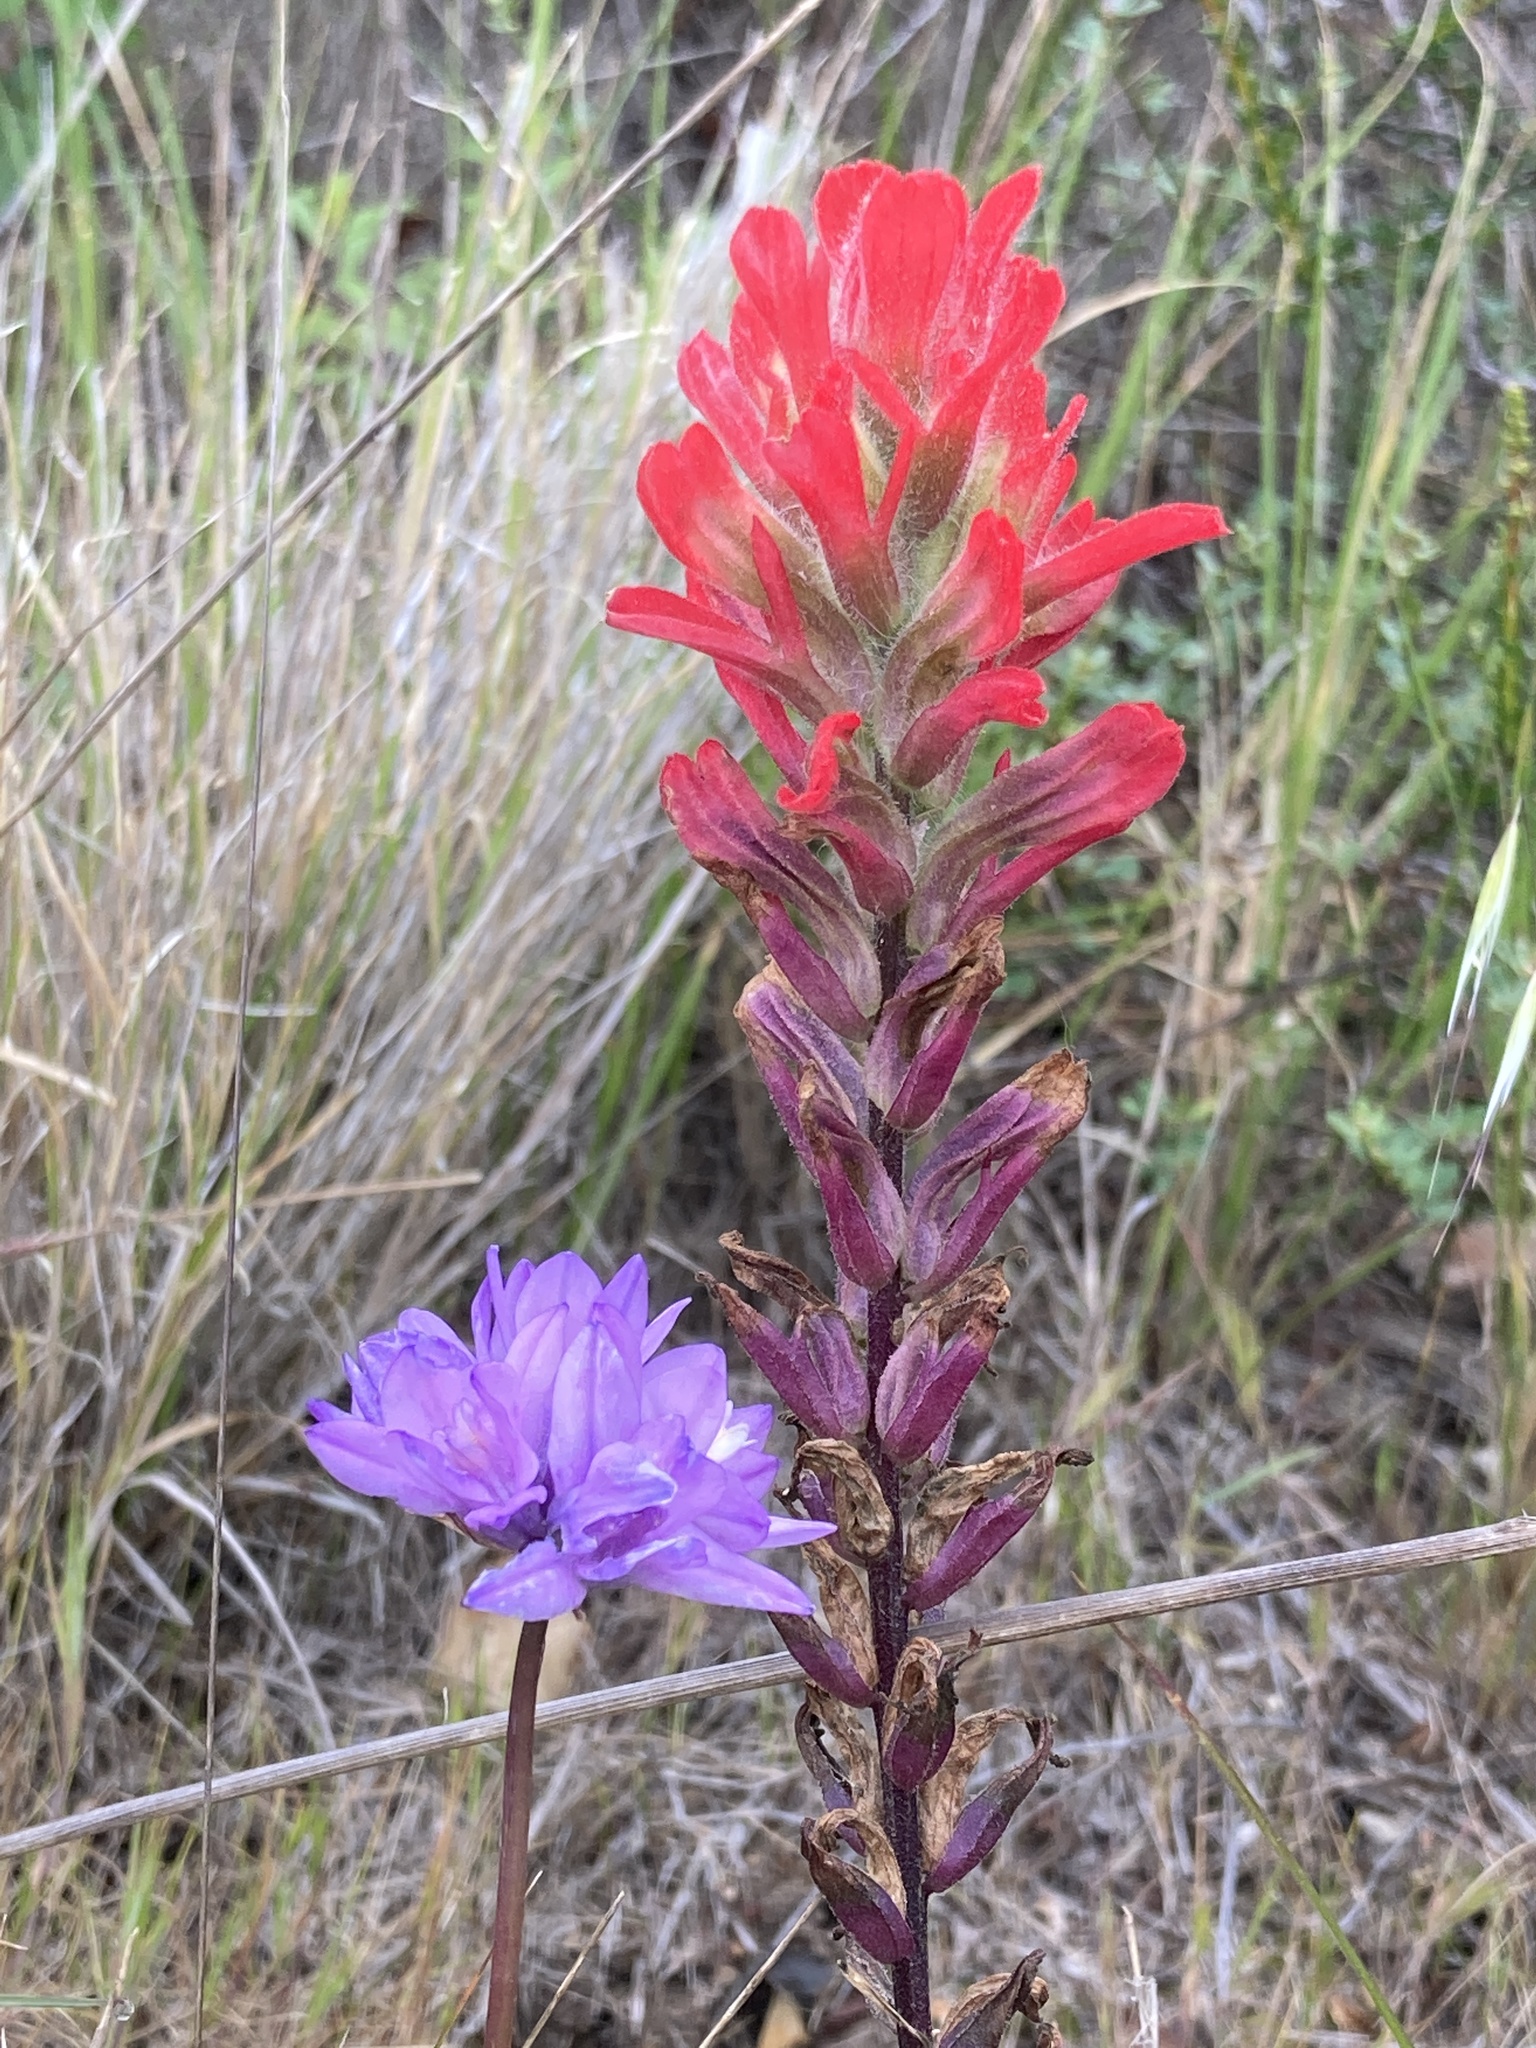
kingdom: Plantae
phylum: Tracheophyta
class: Liliopsida
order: Asparagales
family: Asparagaceae
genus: Dipterostemon
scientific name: Dipterostemon capitatus
